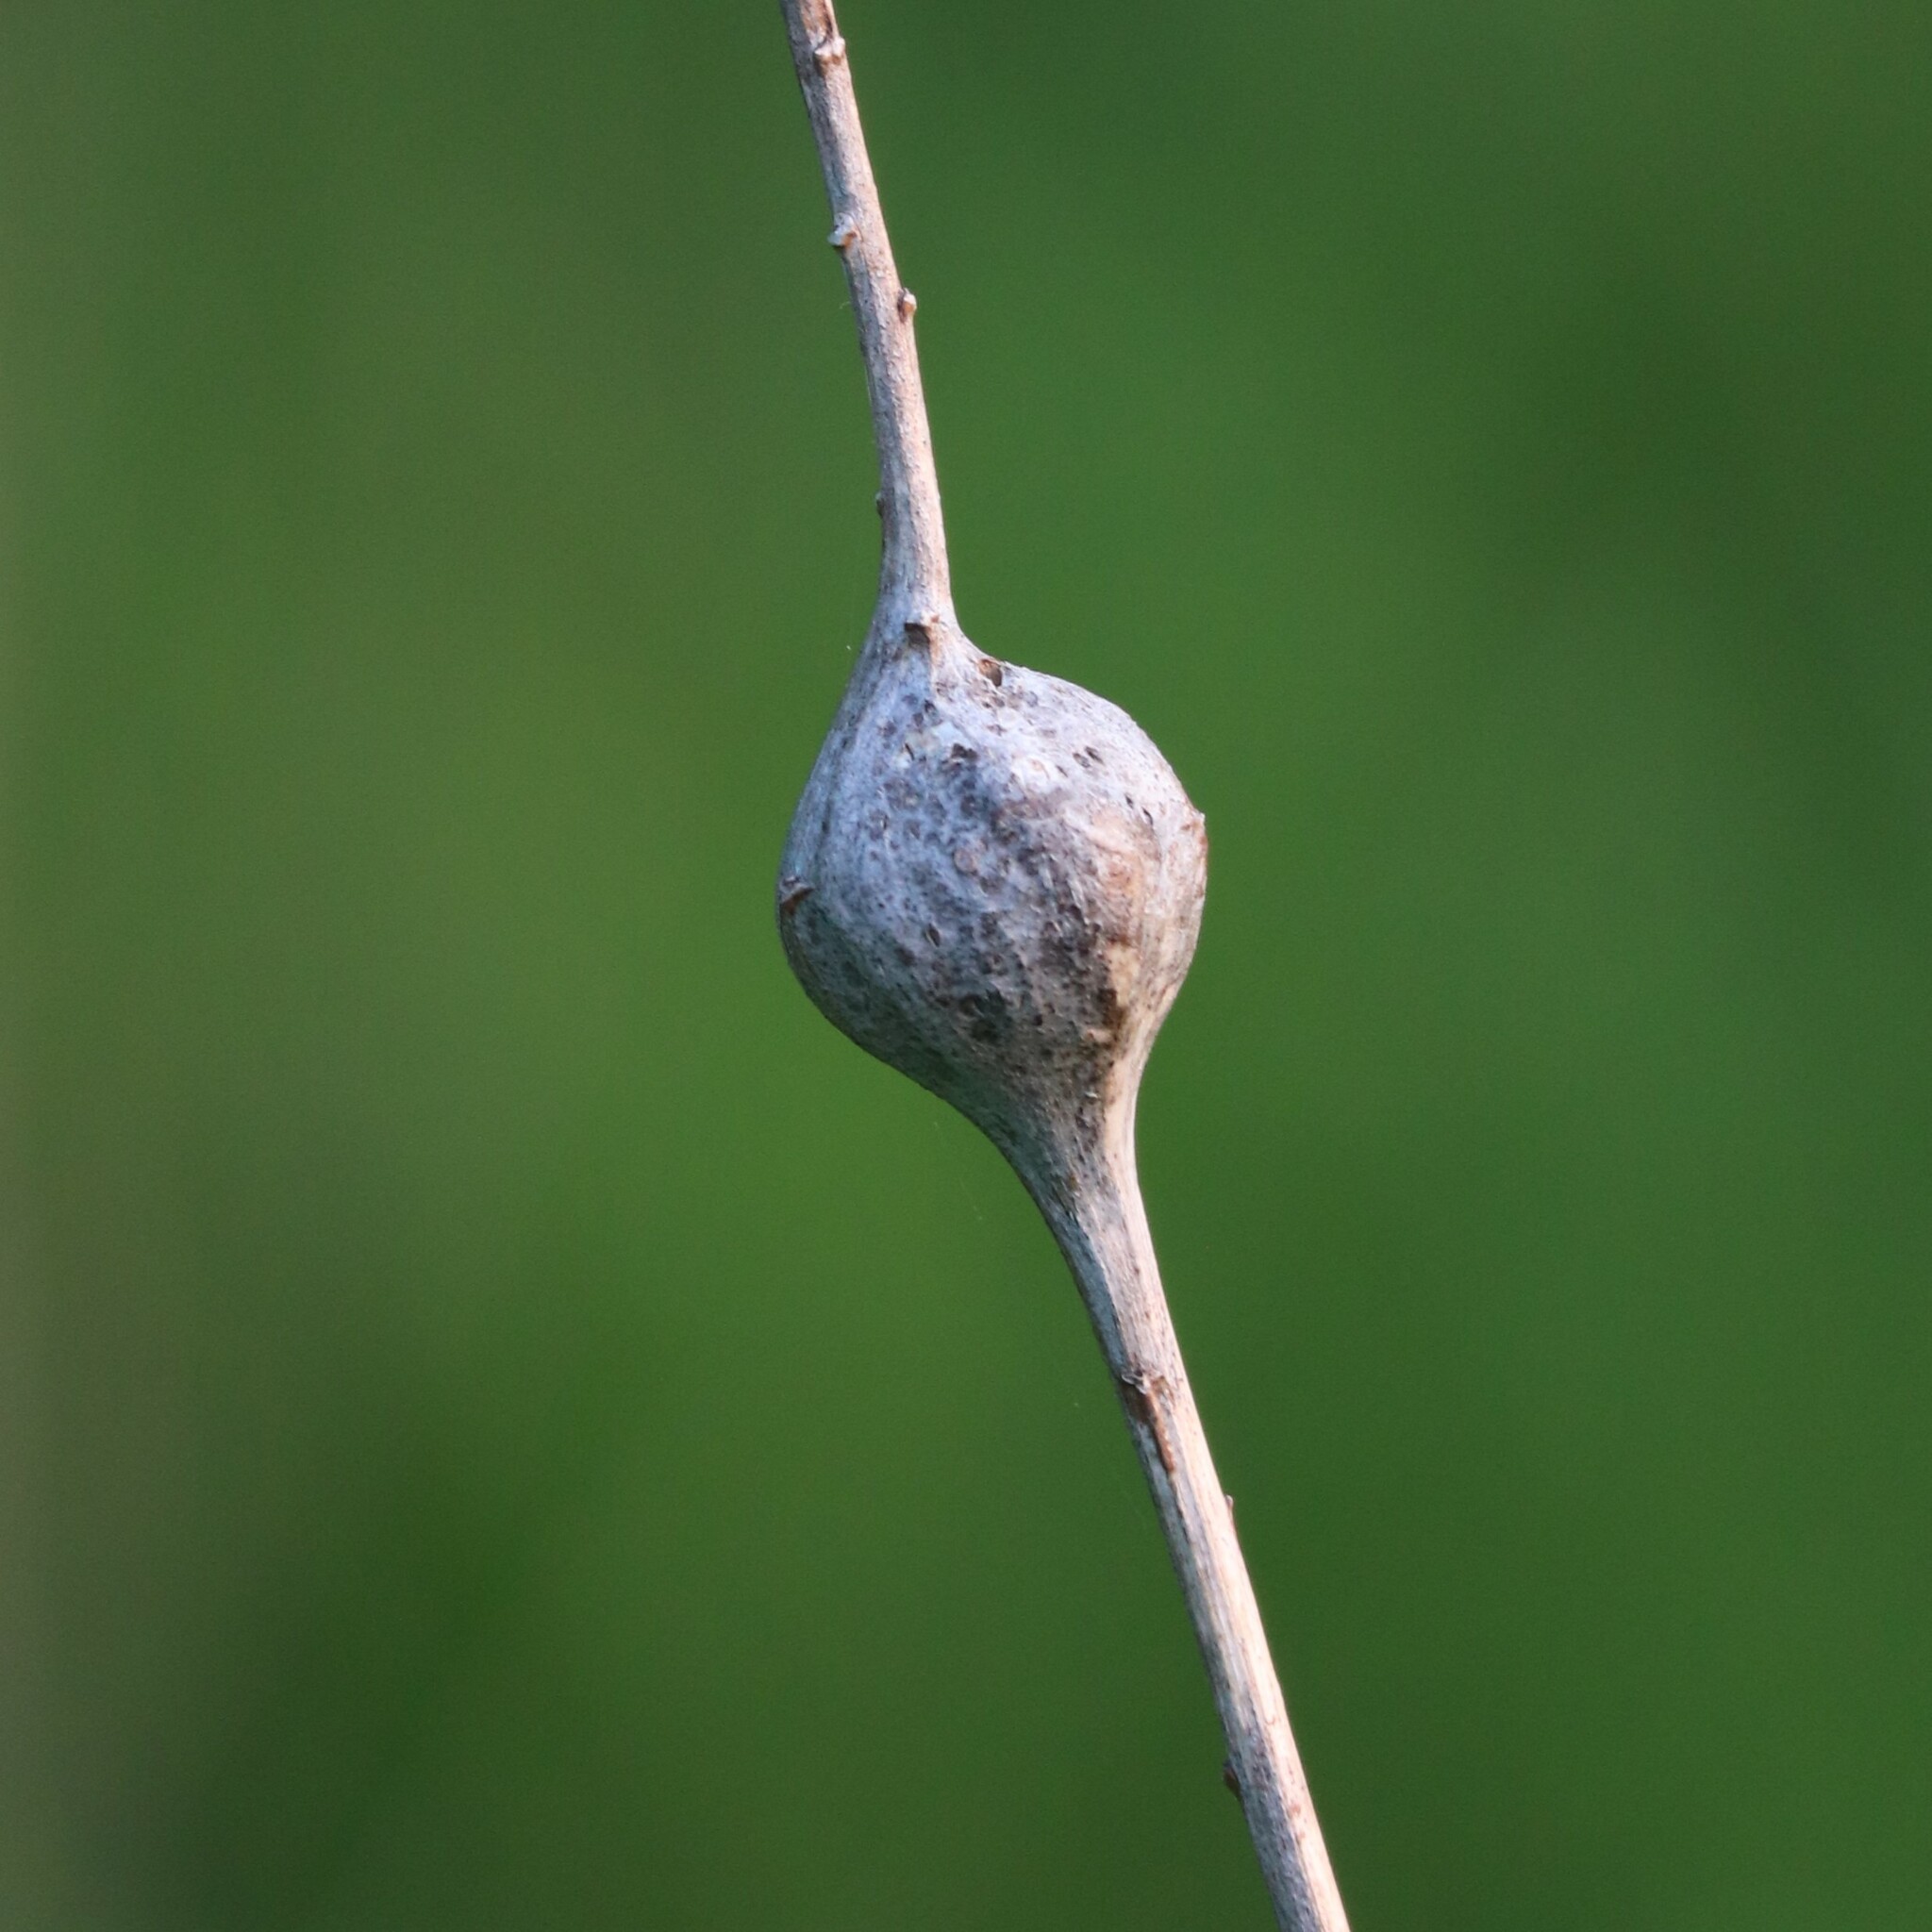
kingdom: Animalia
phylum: Arthropoda
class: Insecta
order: Diptera
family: Tephritidae
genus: Eurosta
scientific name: Eurosta solidaginis
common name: Goldenrod gall fly
